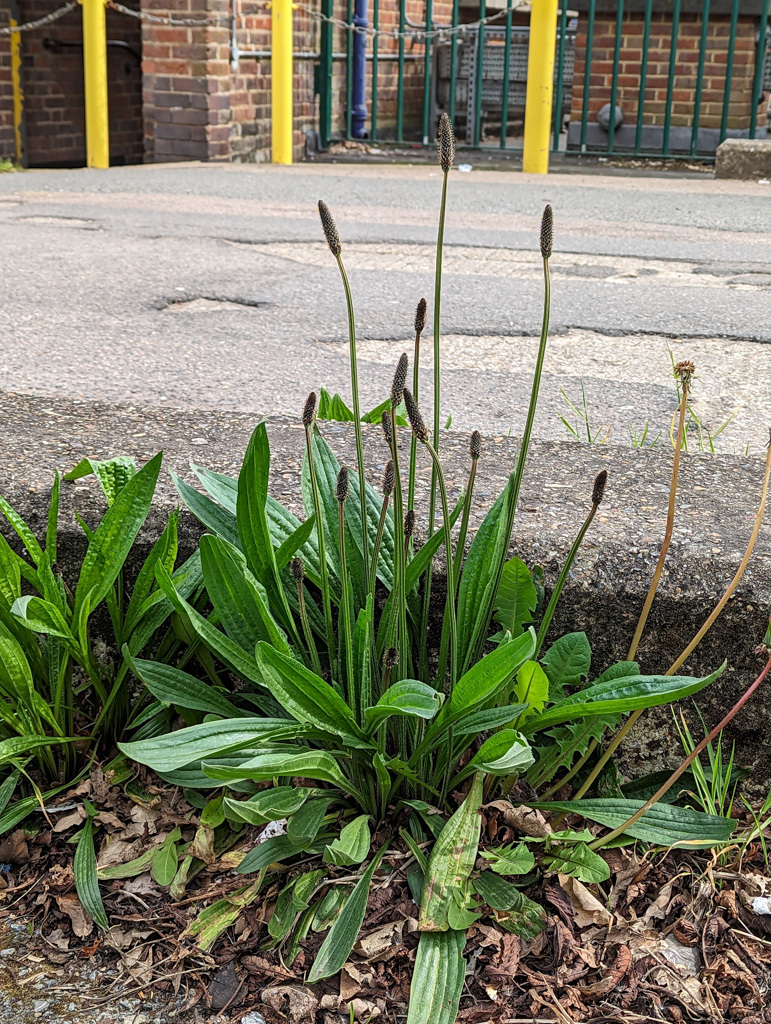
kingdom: Plantae
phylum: Tracheophyta
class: Magnoliopsida
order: Lamiales
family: Plantaginaceae
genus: Plantago
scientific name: Plantago lanceolata
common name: Ribwort plantain
